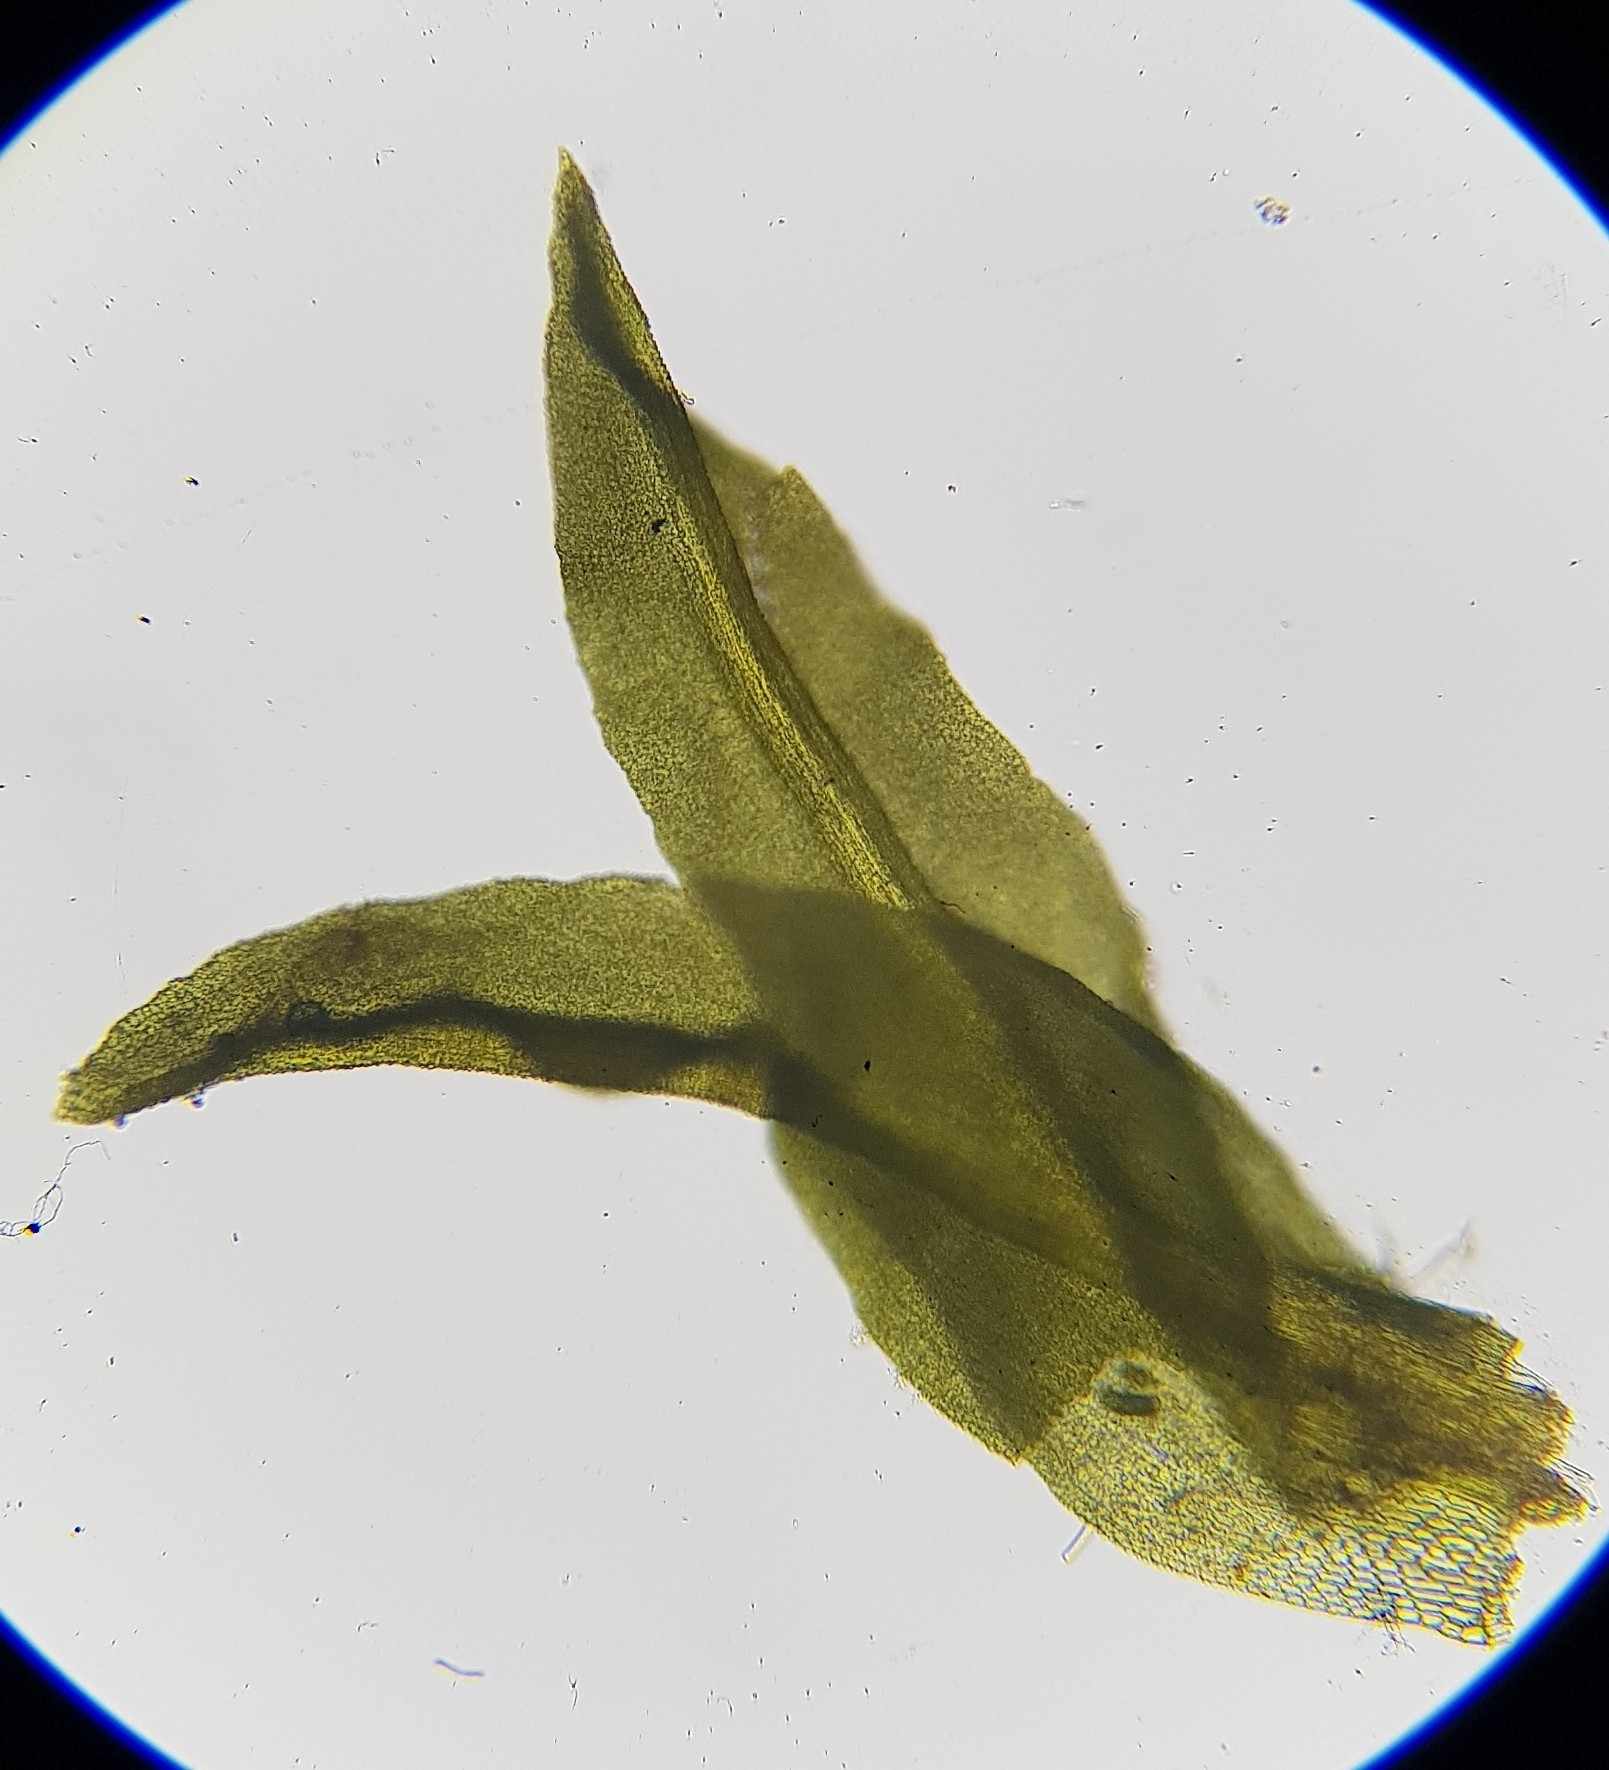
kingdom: Plantae
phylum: Bryophyta
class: Bryopsida
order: Pottiales
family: Pottiaceae
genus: Trichostomum
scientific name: Trichostomum brachydontium
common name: Variable crisp-moss
